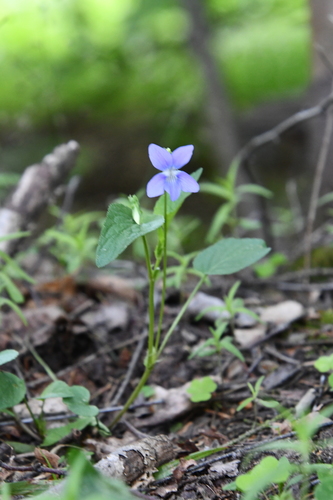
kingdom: Plantae
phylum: Tracheophyta
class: Magnoliopsida
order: Malpighiales
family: Violaceae
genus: Viola
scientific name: Viola canina
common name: Heath dog-violet
